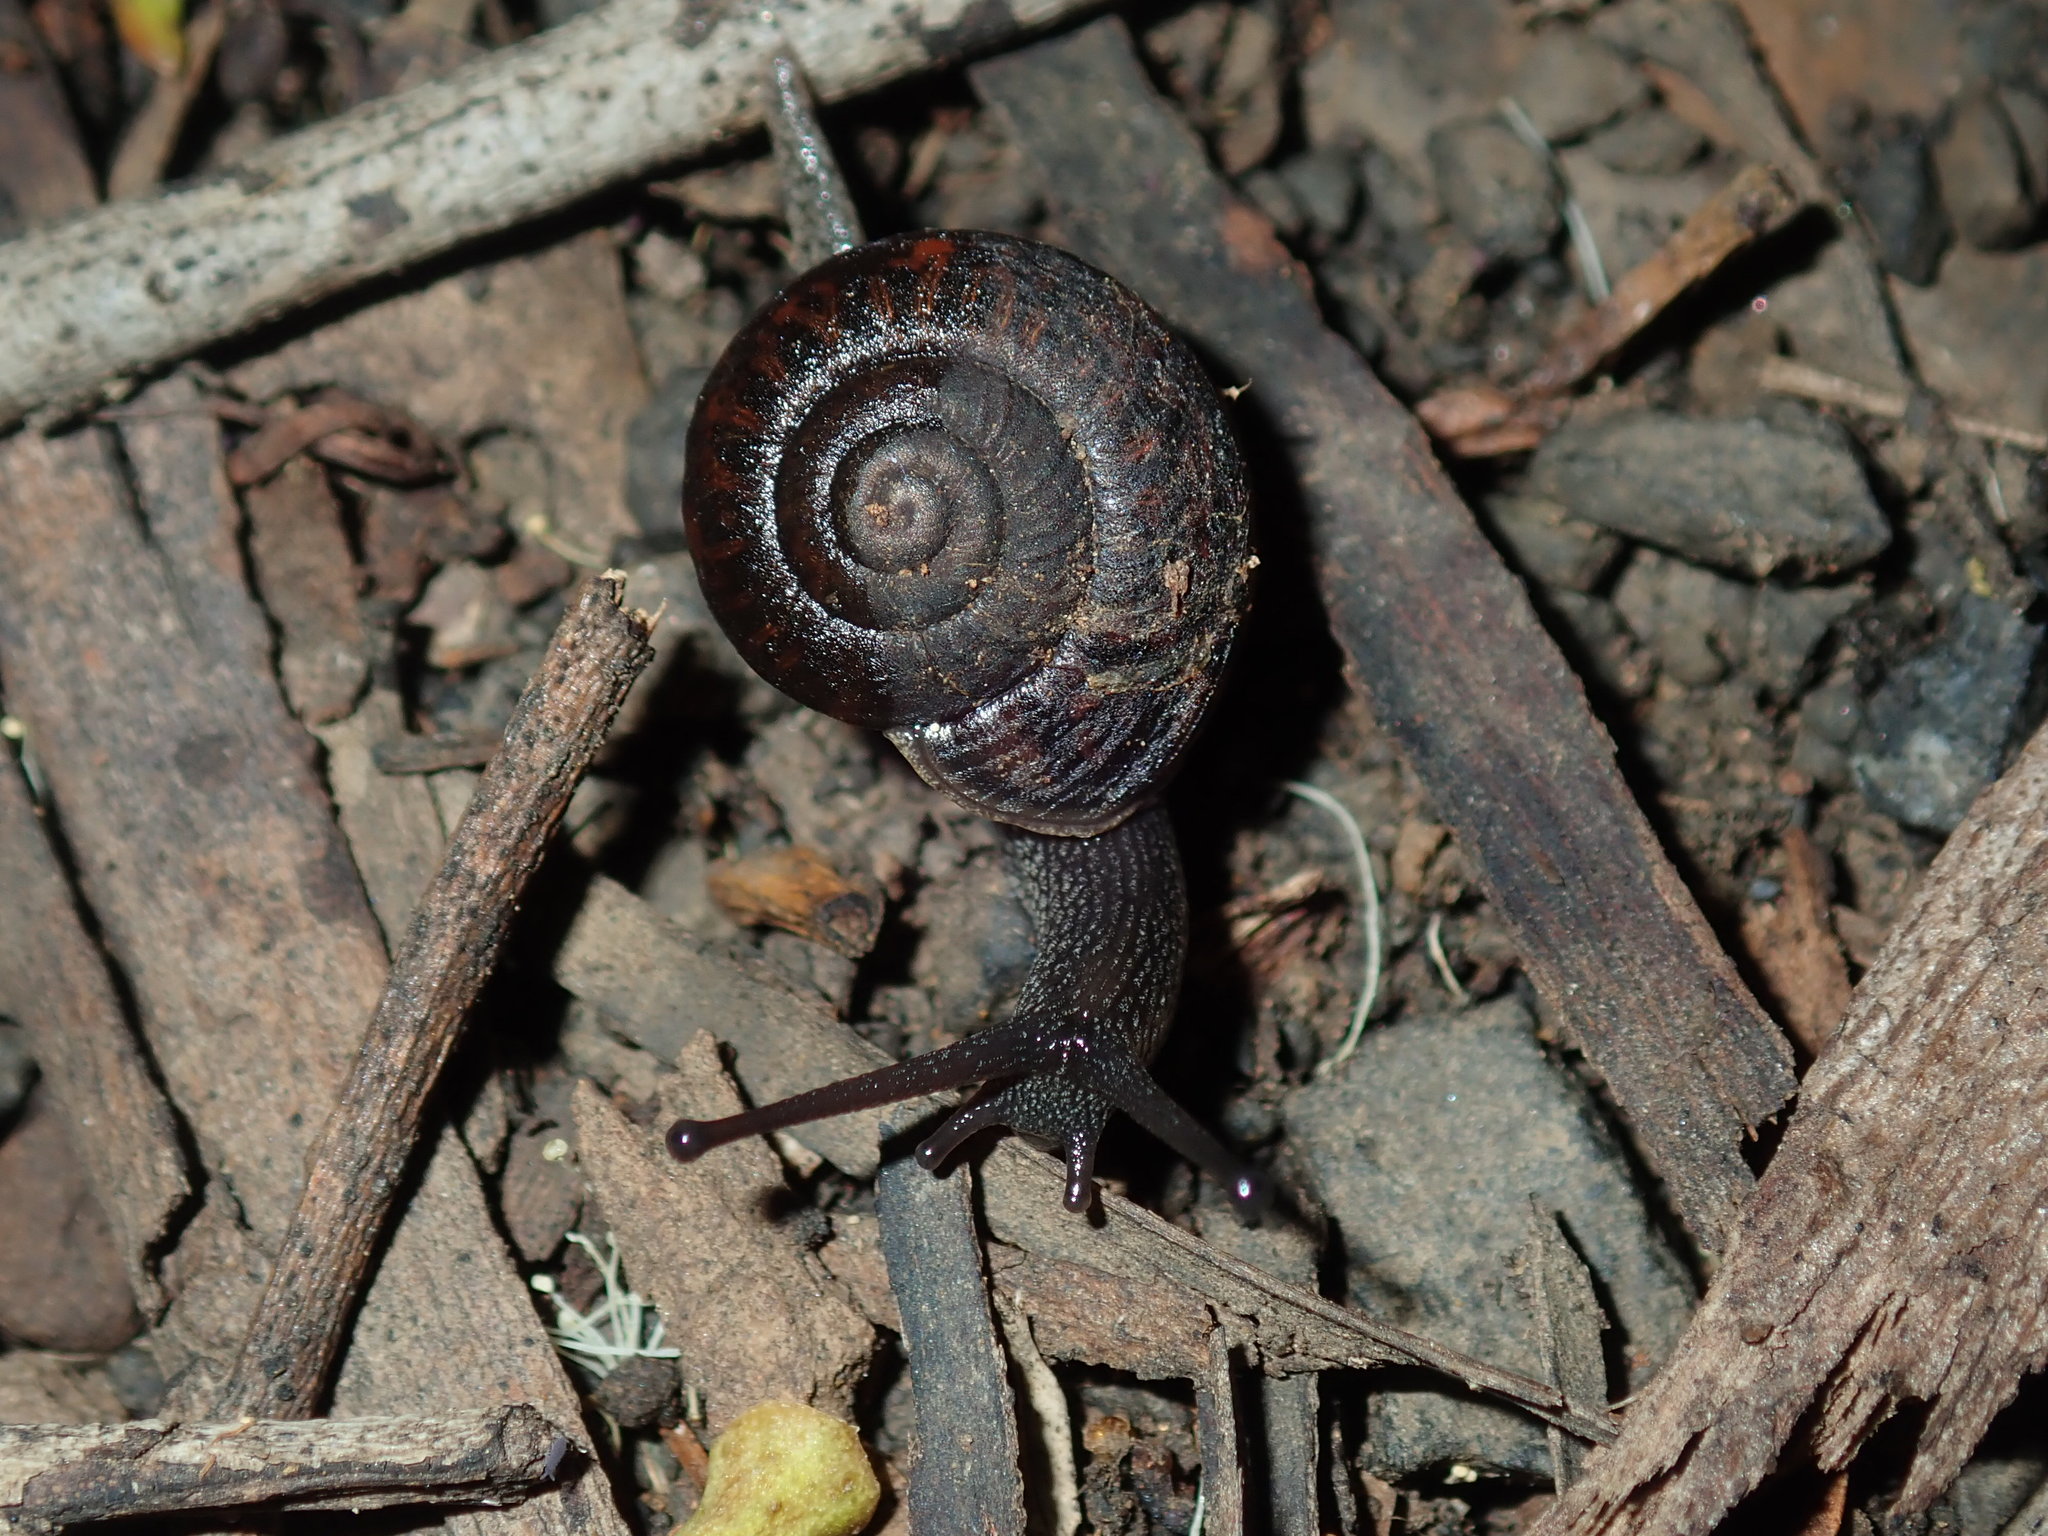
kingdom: Animalia
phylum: Mollusca
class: Gastropoda
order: Stylommatophora
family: Camaenidae
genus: Sauroconcha
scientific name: Sauroconcha sheai
